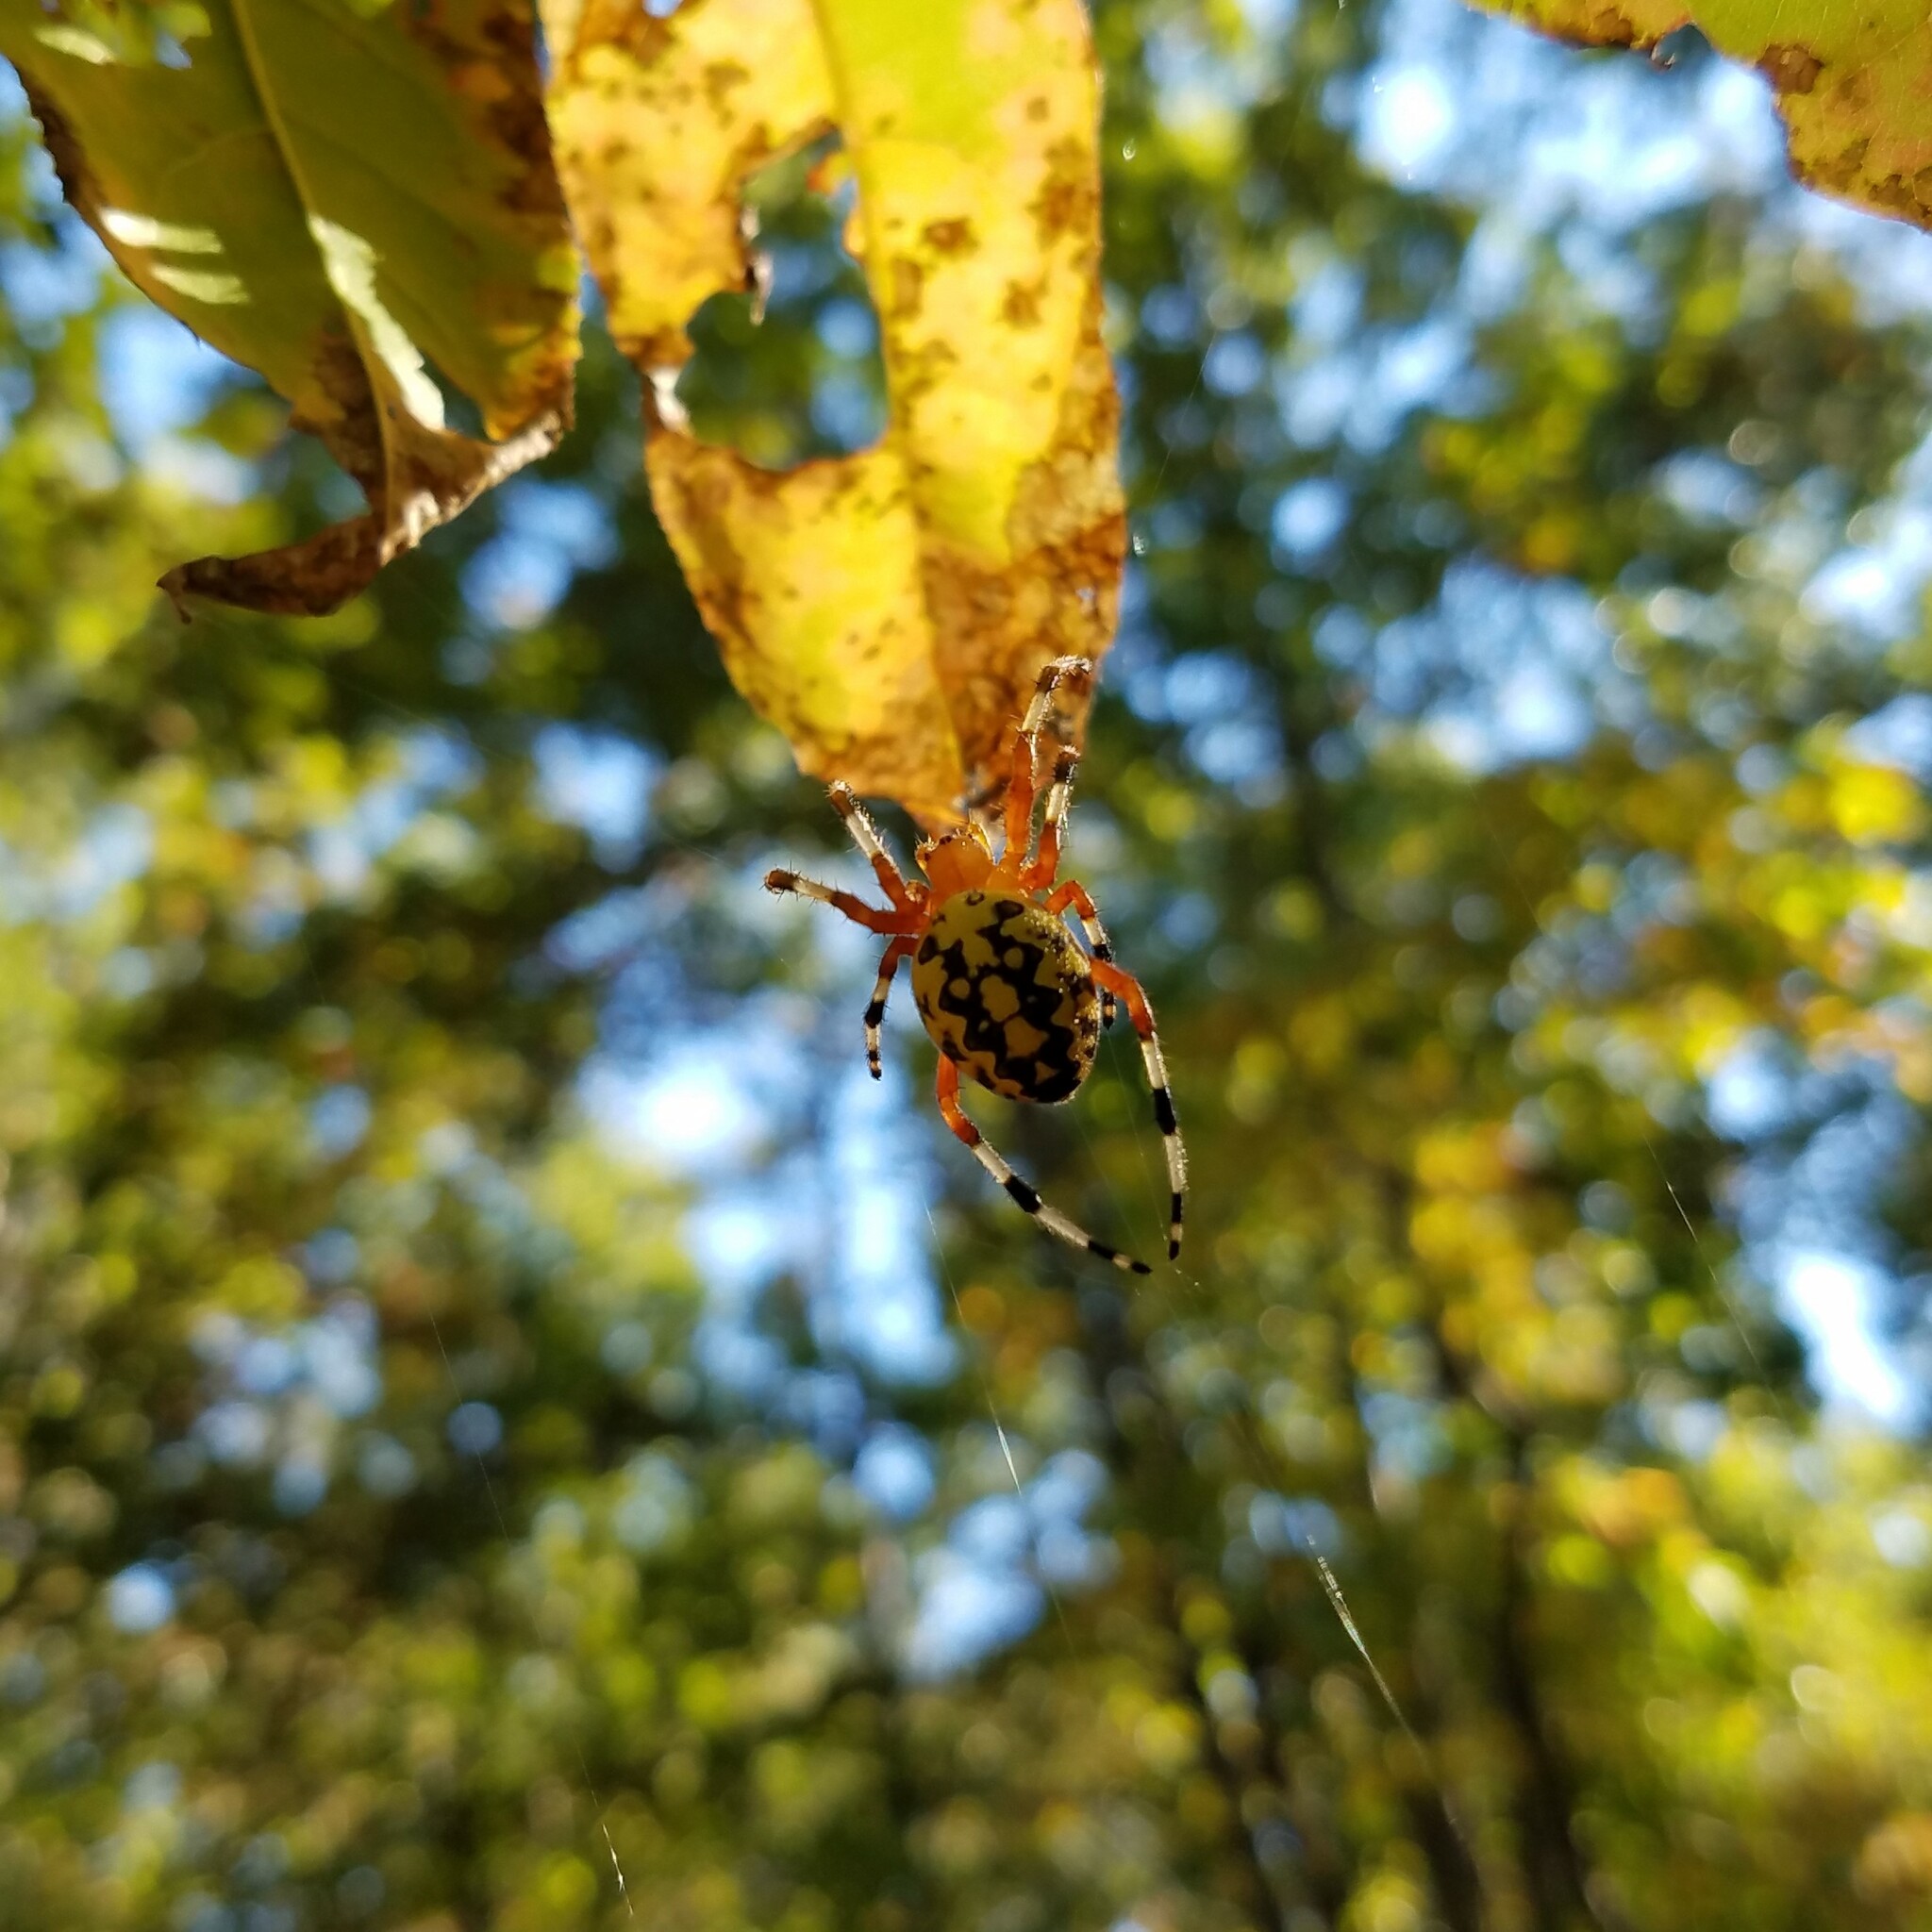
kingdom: Animalia
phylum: Arthropoda
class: Arachnida
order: Araneae
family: Araneidae
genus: Araneus
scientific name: Araneus marmoreus
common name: Marbled orbweaver
